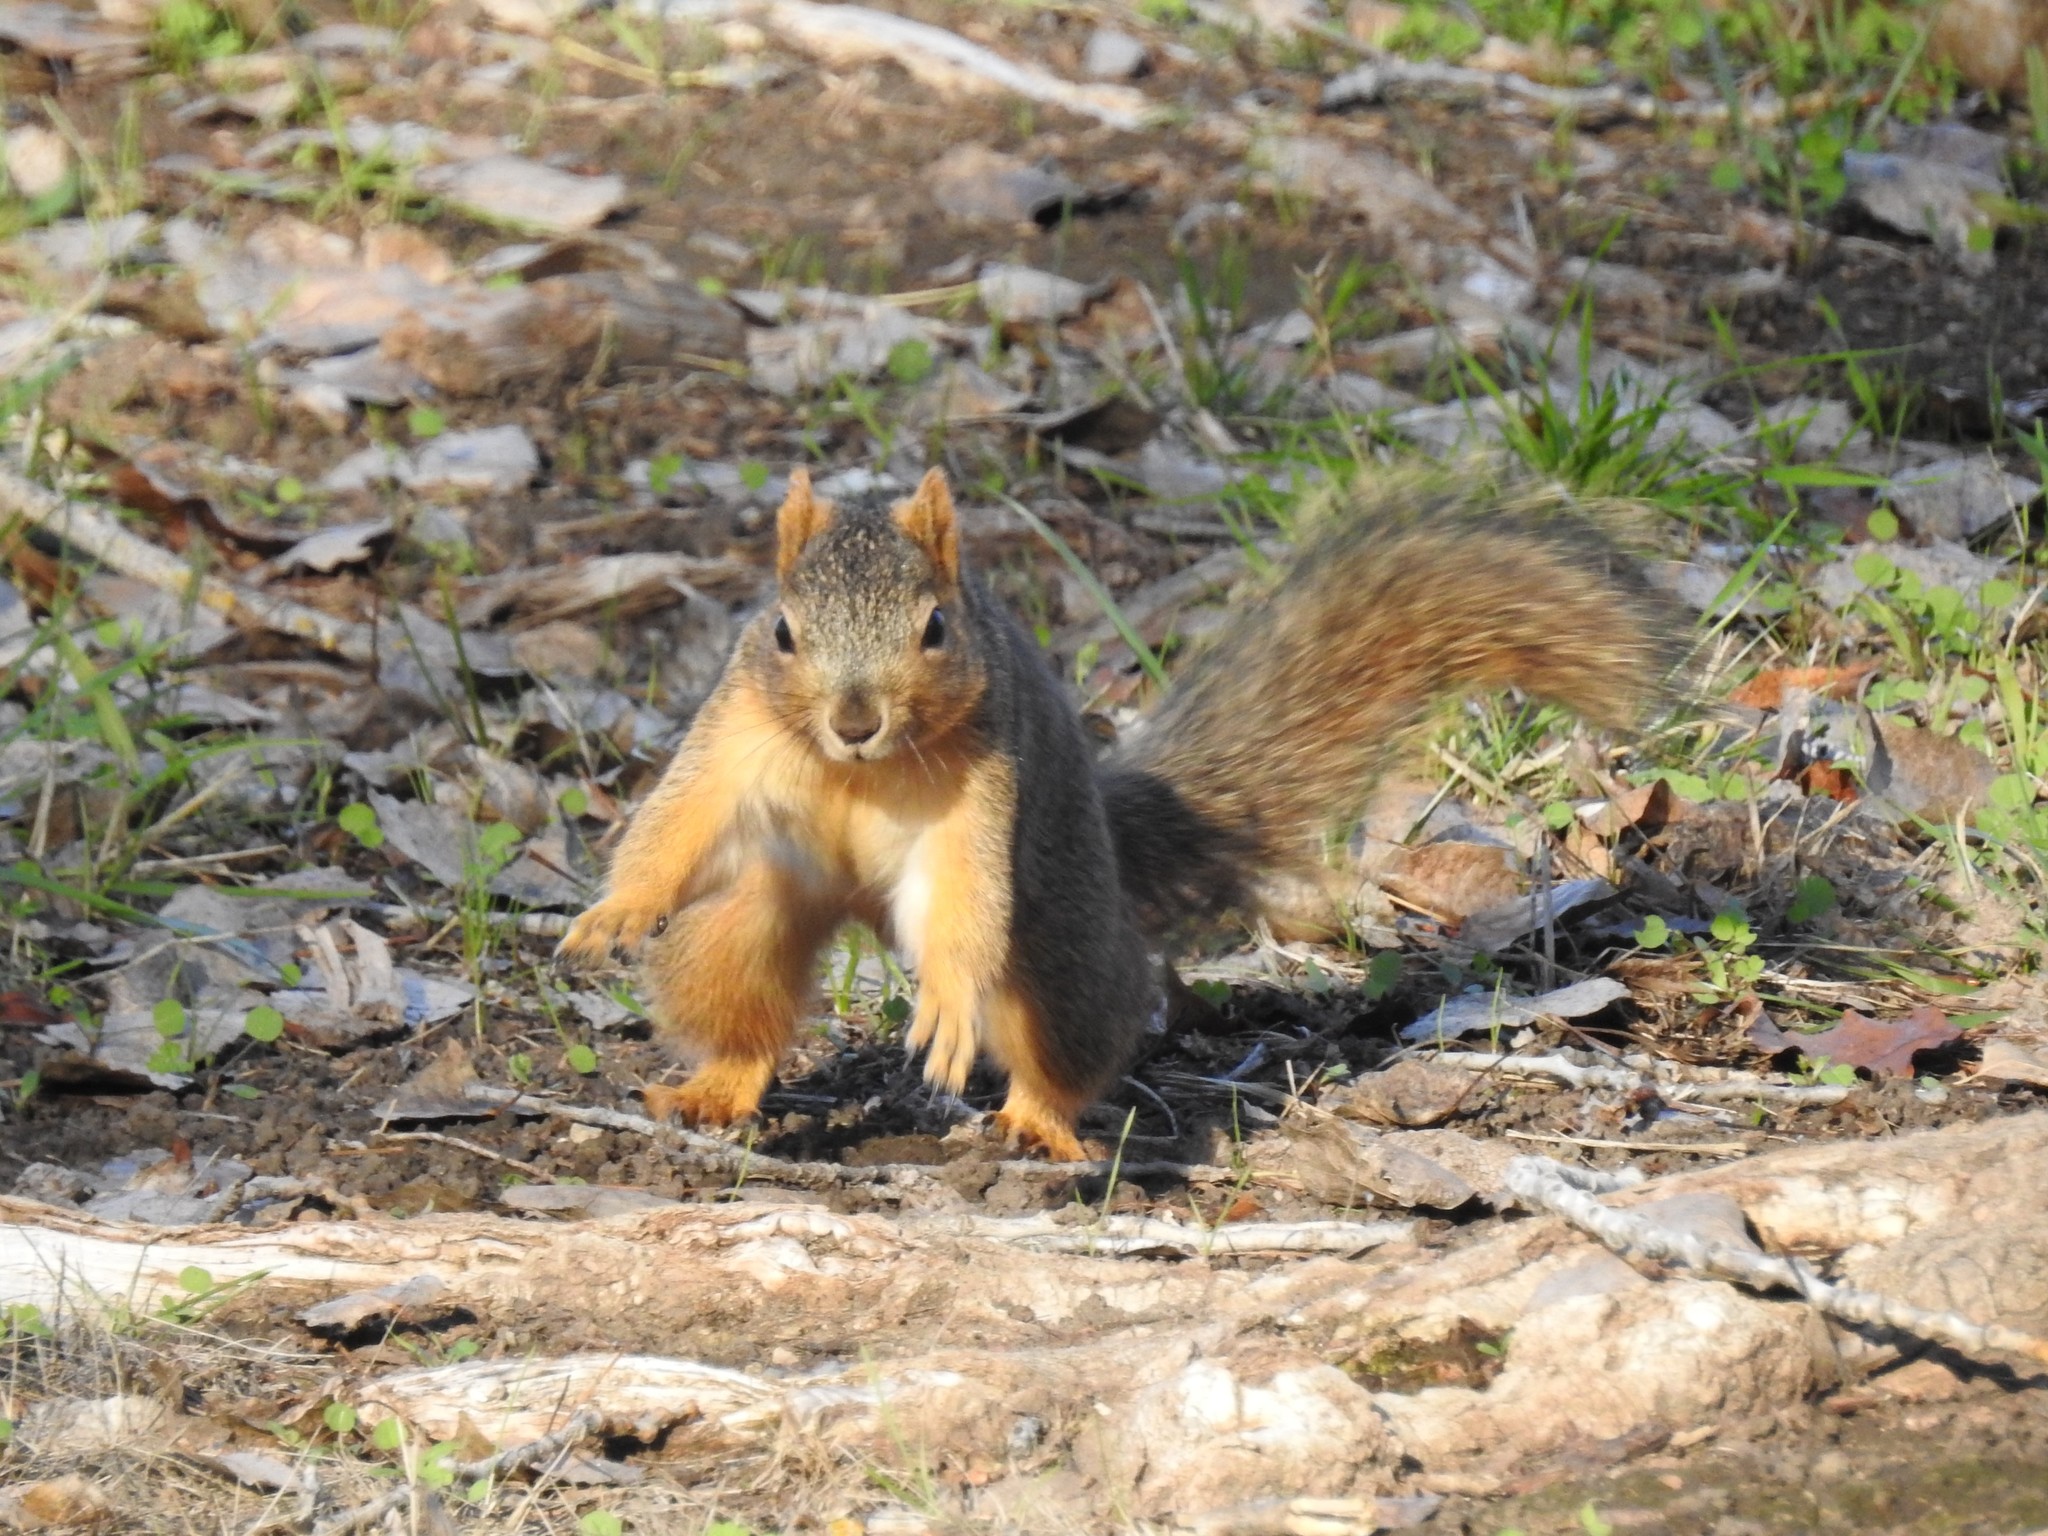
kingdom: Animalia
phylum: Chordata
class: Mammalia
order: Rodentia
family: Sciuridae
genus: Sciurus
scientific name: Sciurus niger
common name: Fox squirrel
